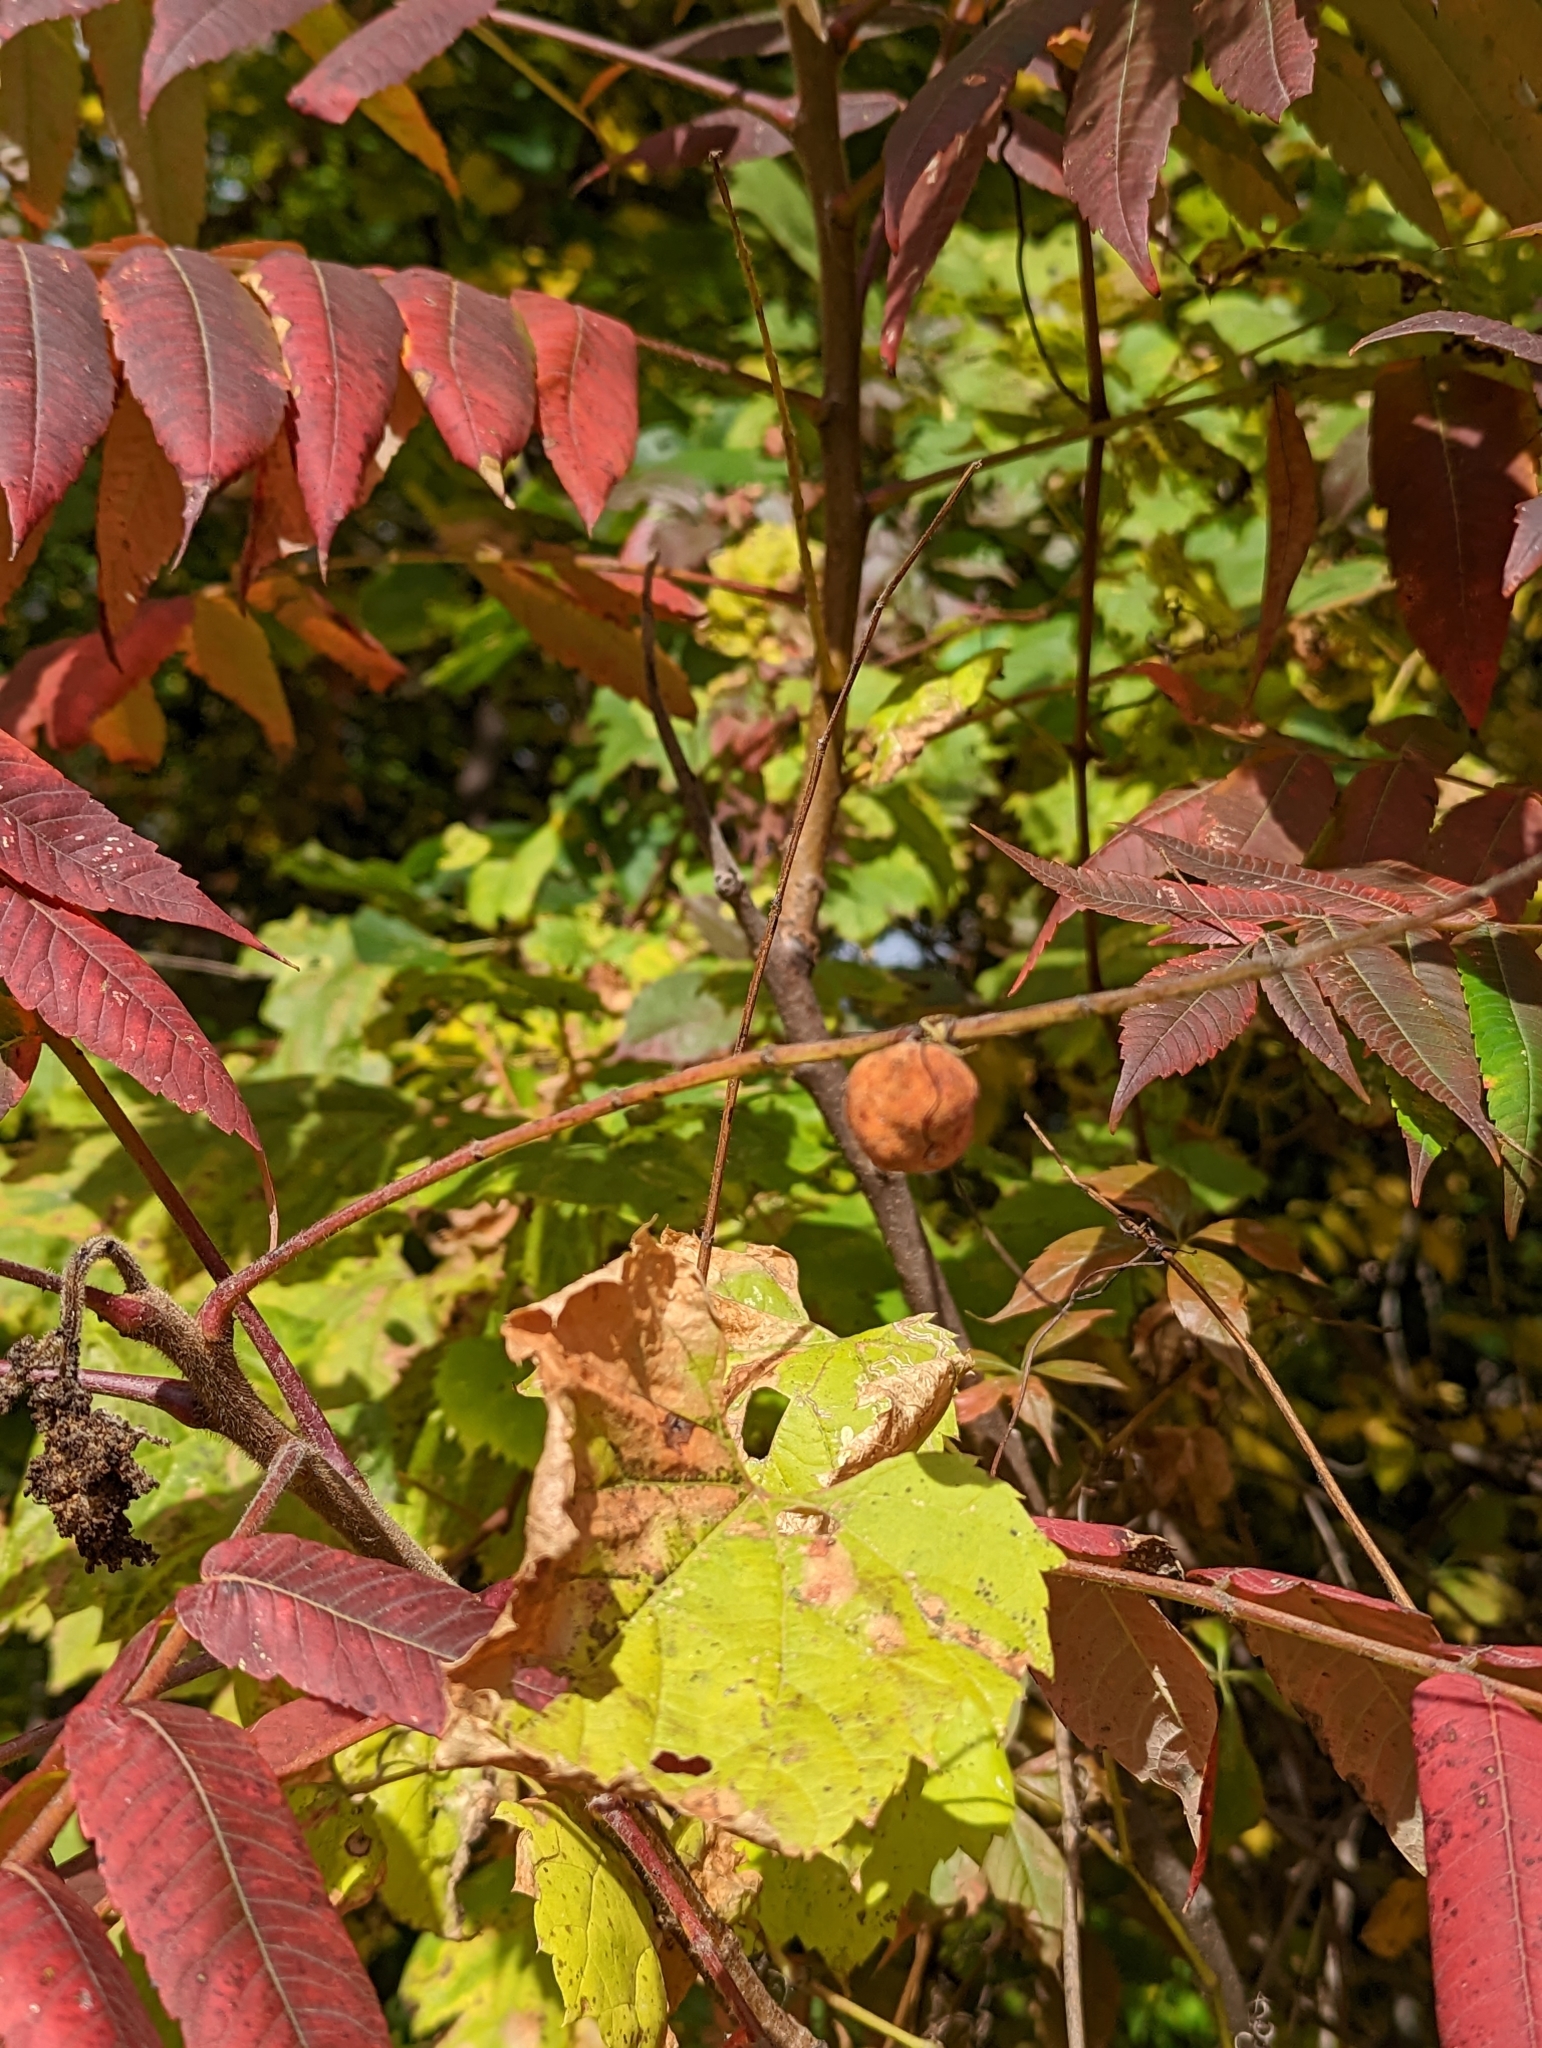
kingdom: Animalia
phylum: Arthropoda
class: Insecta
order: Hemiptera
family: Aphididae
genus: Melaphis
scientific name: Melaphis rhois
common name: Sumac gall aphid
